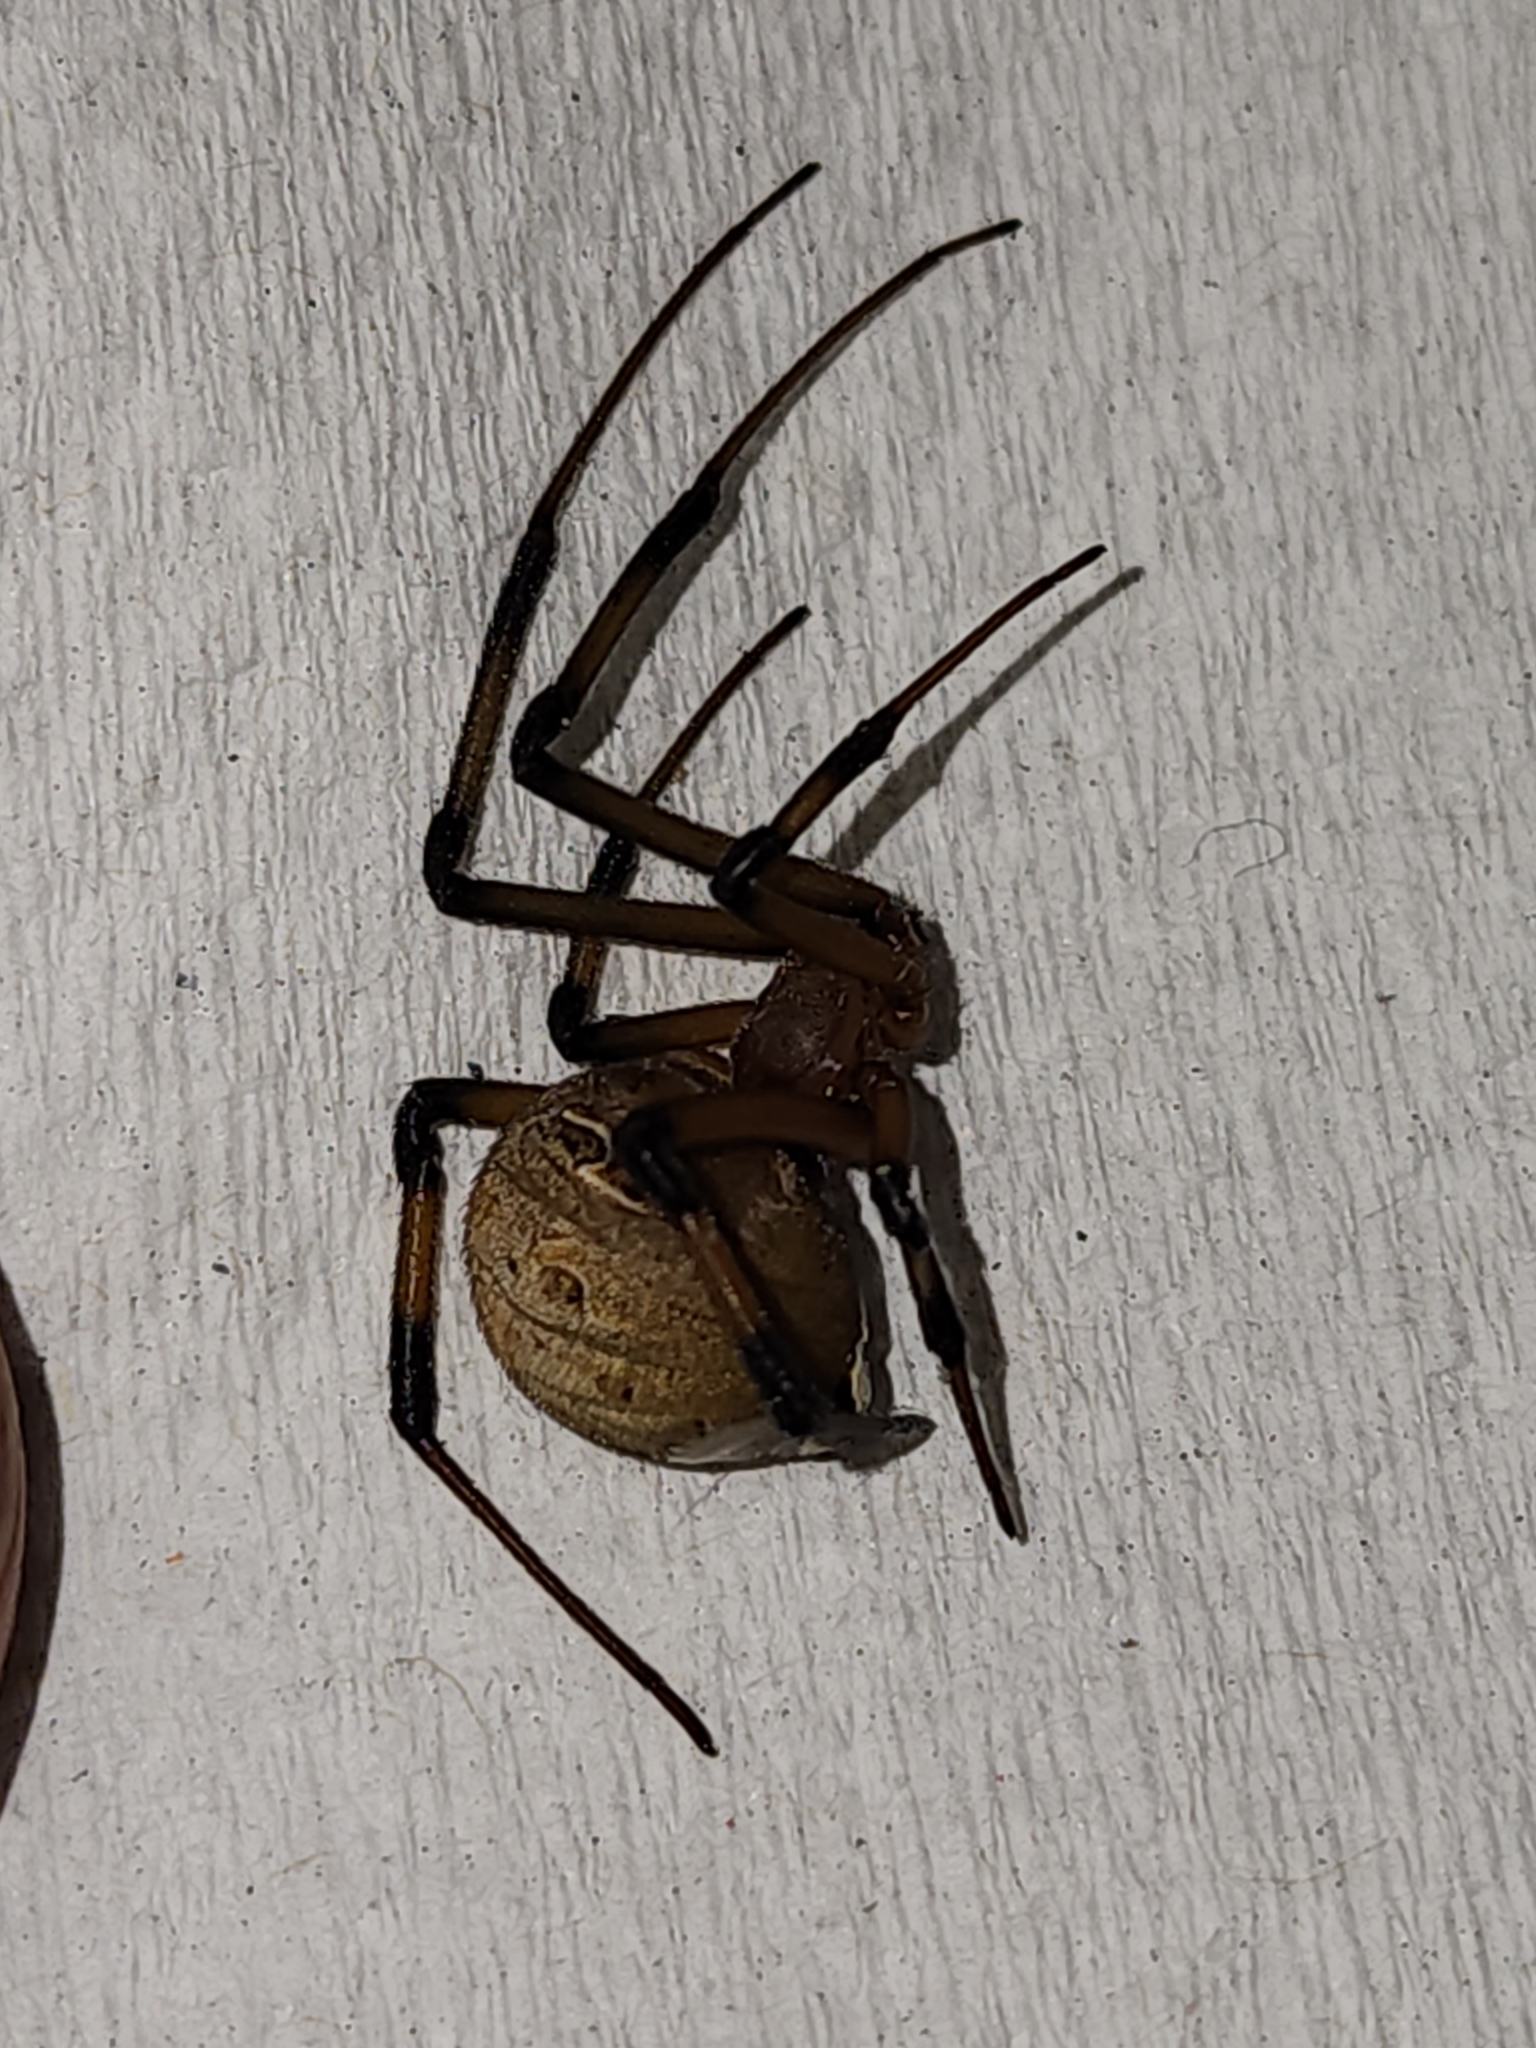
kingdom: Animalia
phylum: Arthropoda
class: Arachnida
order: Araneae
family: Theridiidae
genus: Latrodectus
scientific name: Latrodectus geometricus
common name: Brown widow spider
